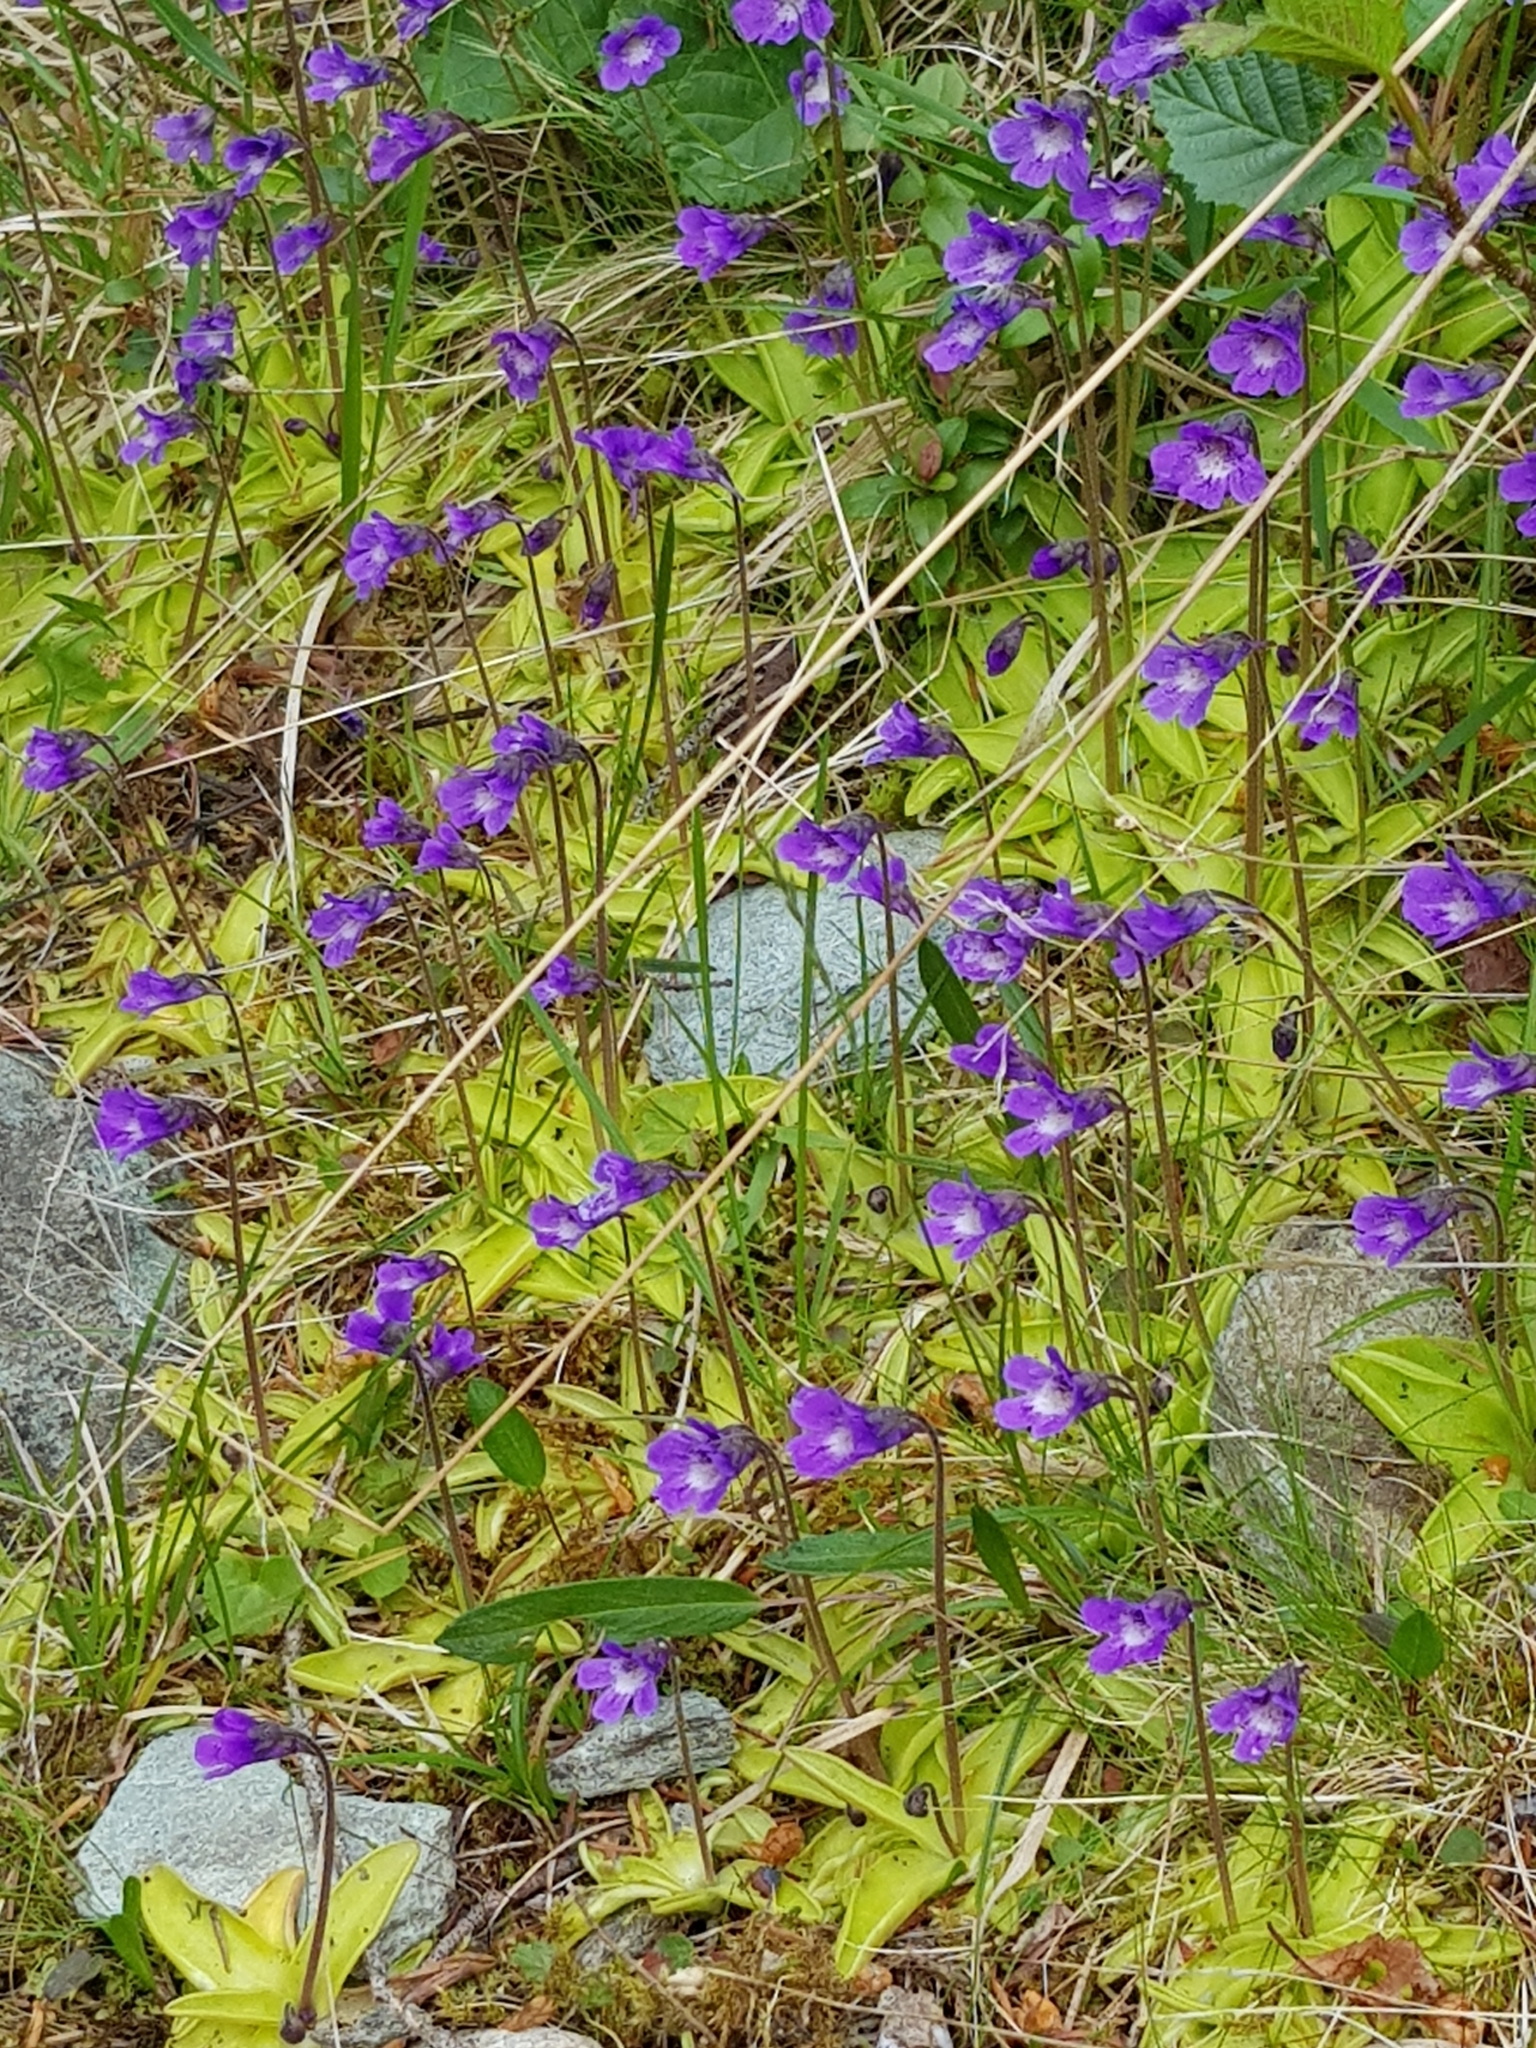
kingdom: Plantae
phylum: Tracheophyta
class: Magnoliopsida
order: Lamiales
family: Lentibulariaceae
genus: Pinguicula
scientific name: Pinguicula vulgaris
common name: Common butterwort
